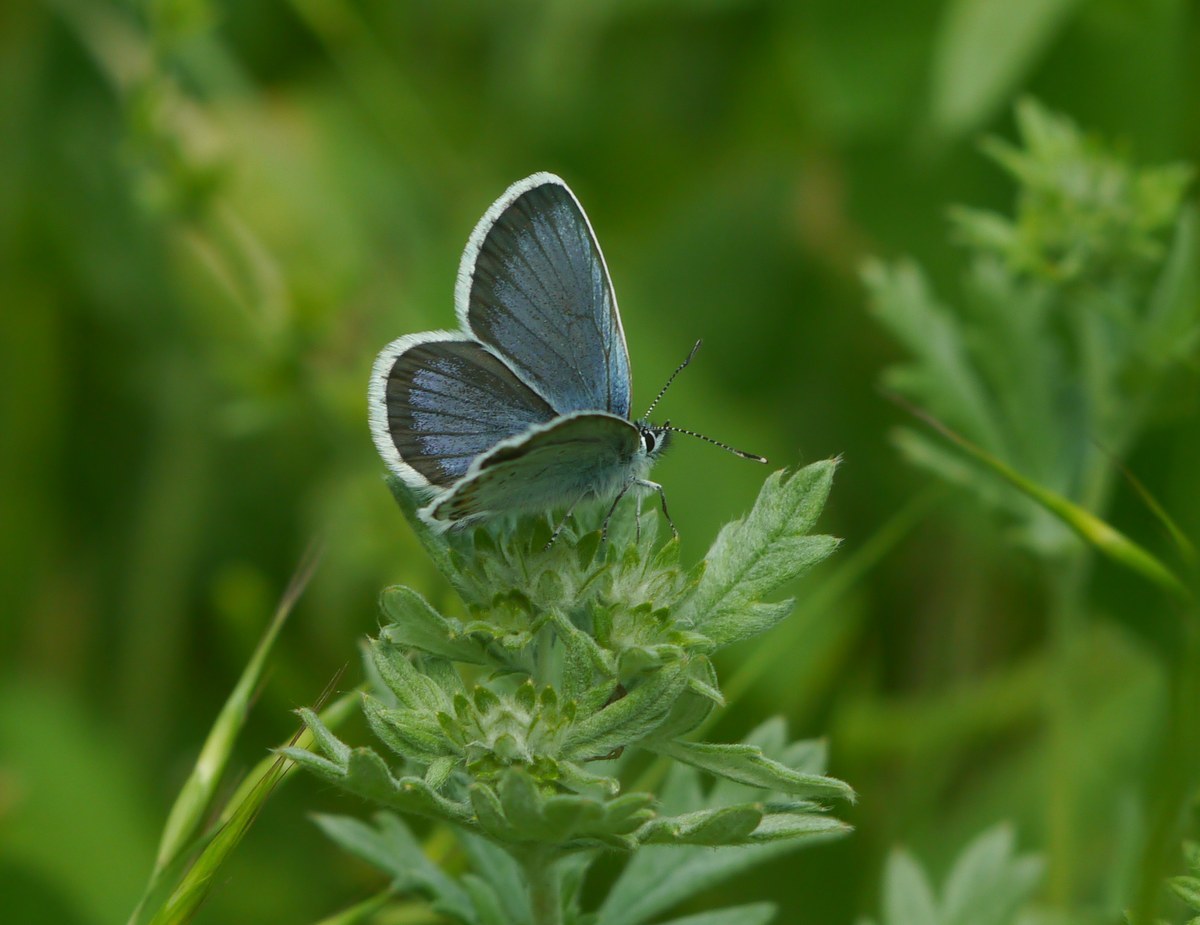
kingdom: Animalia
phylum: Arthropoda
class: Insecta
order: Lepidoptera
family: Lycaenidae
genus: Plebejus
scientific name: Plebejus argus
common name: Silver-studded blue
